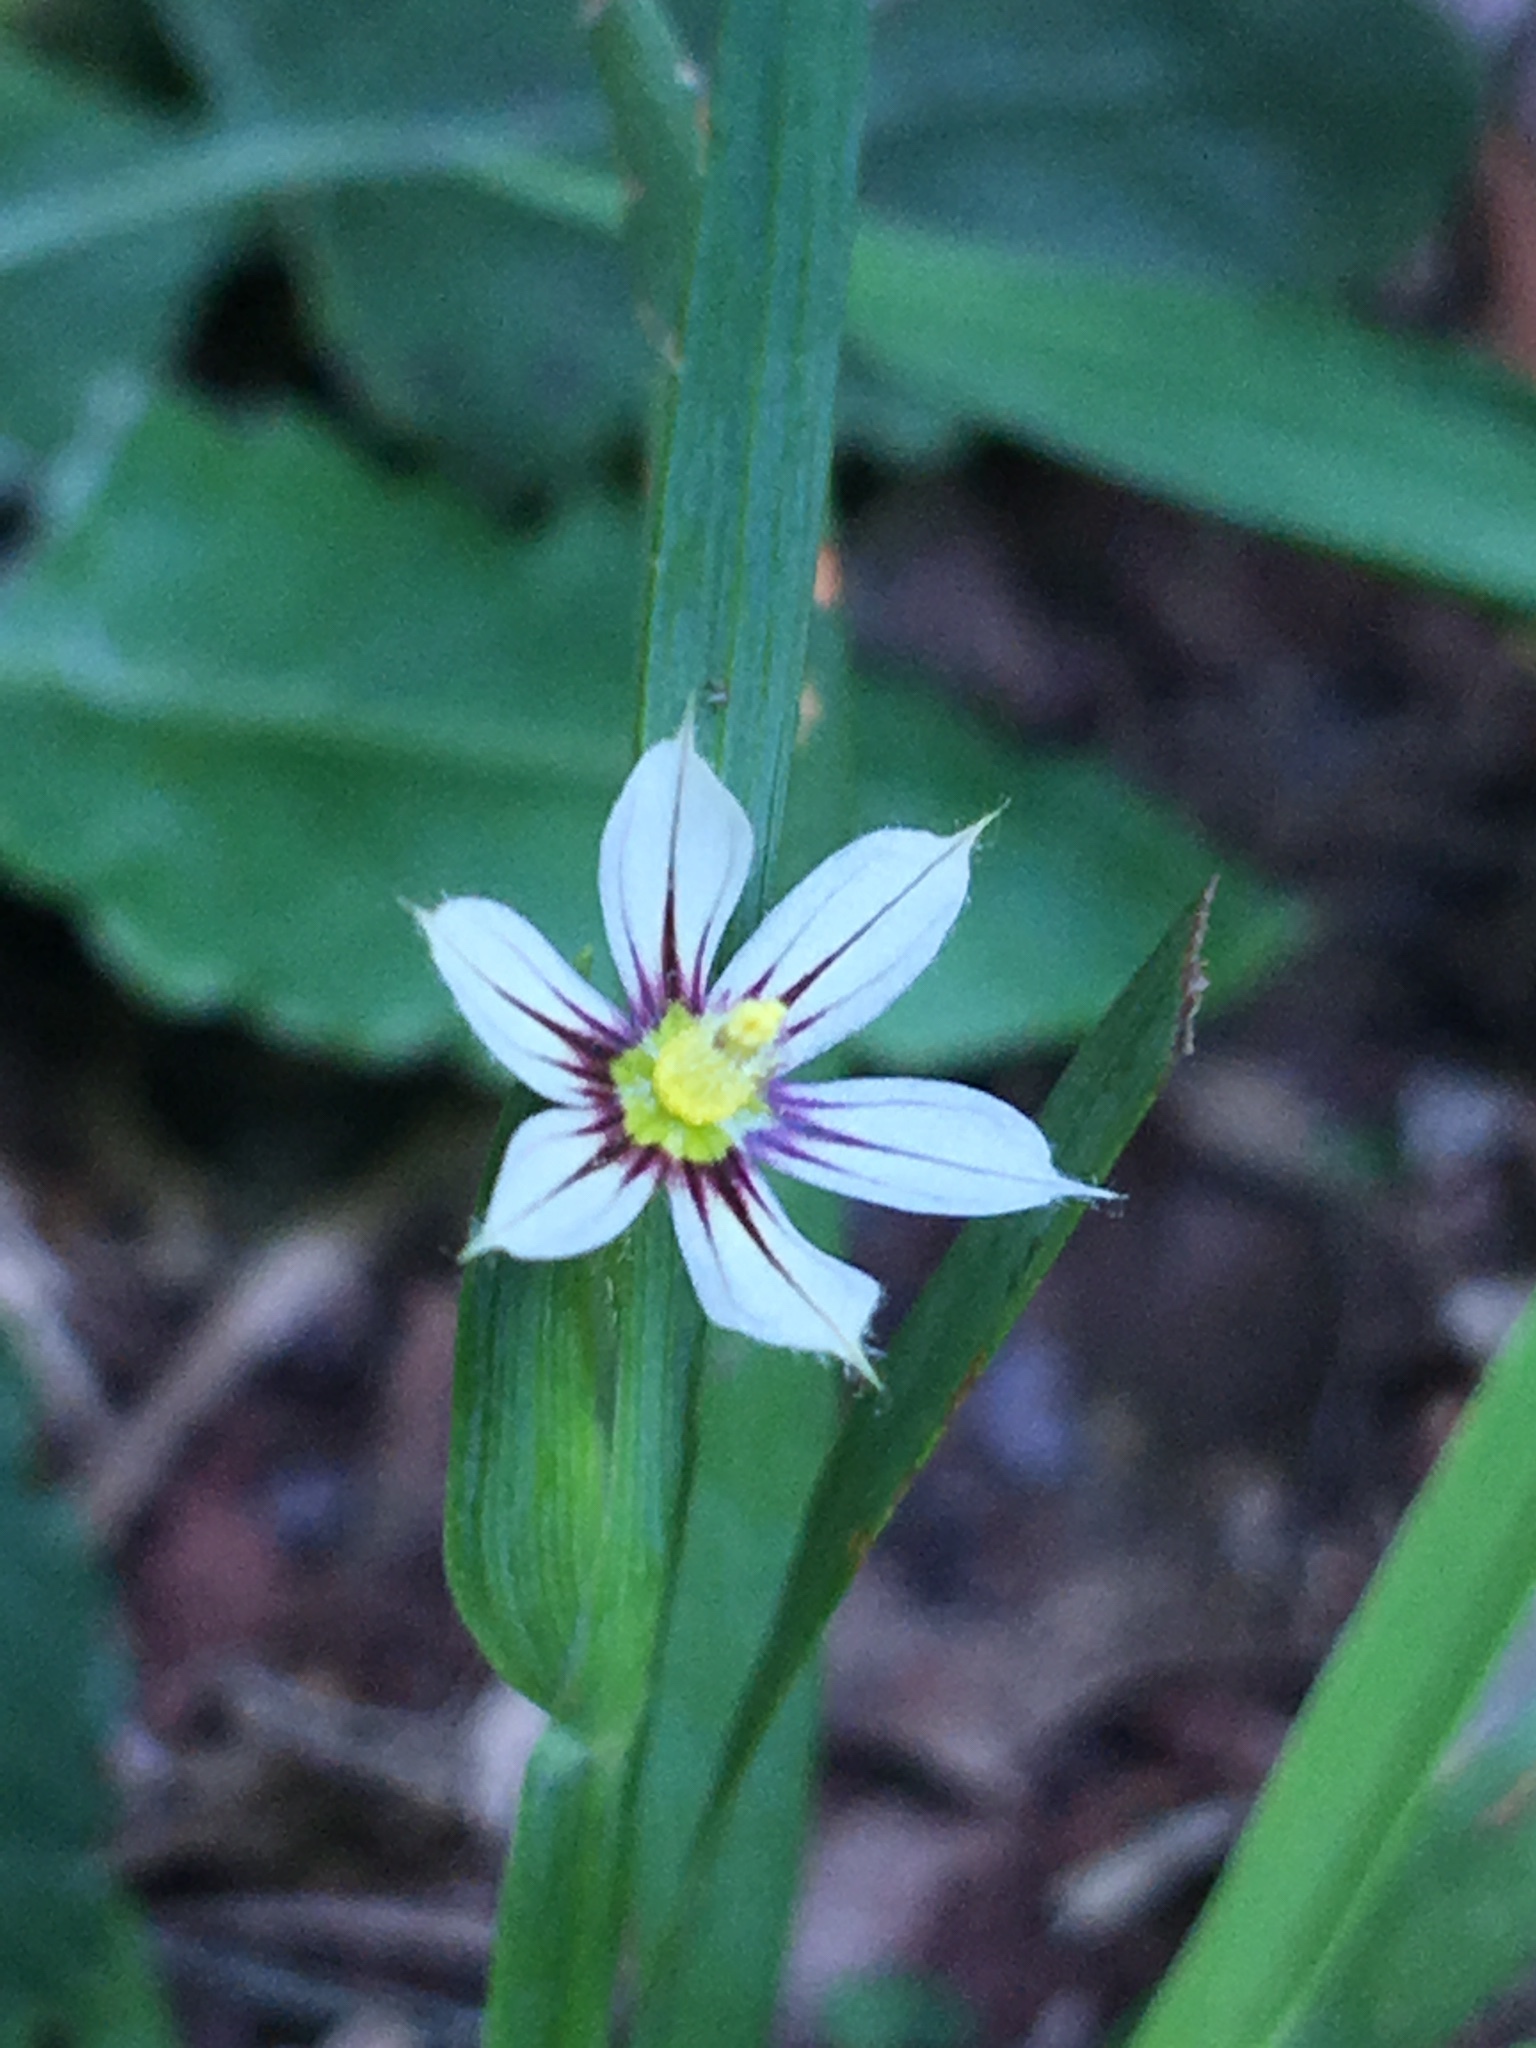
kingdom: Plantae
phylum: Tracheophyta
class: Liliopsida
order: Asparagales
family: Iridaceae
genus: Sisyrinchium
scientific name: Sisyrinchium platycaule
